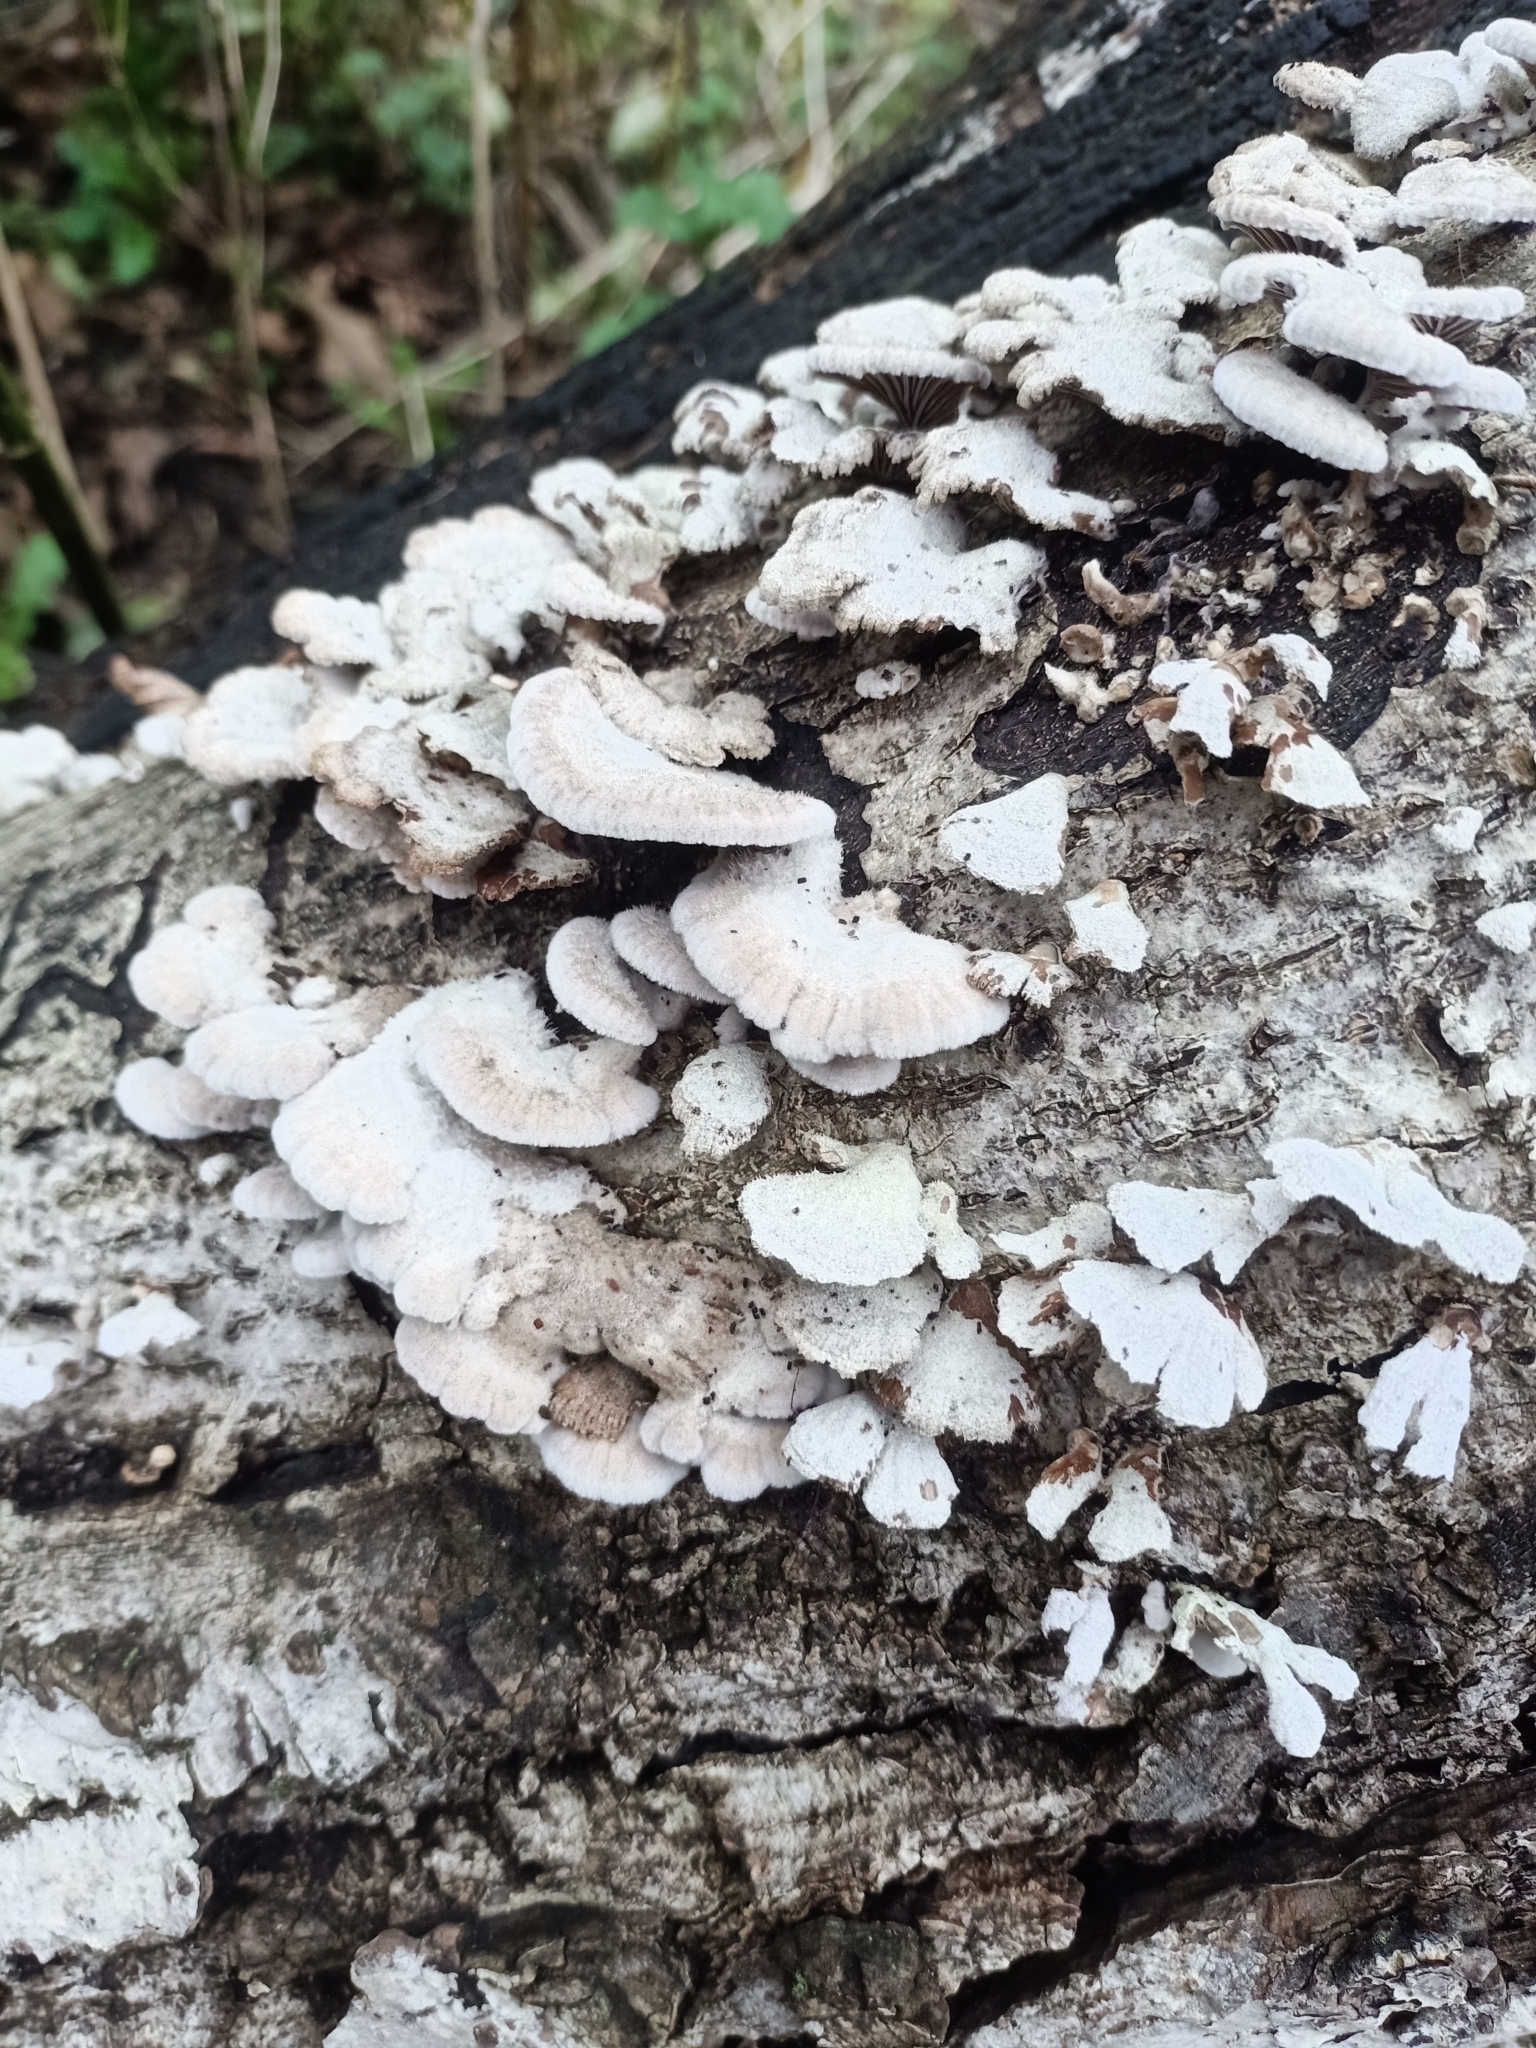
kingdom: Fungi
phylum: Basidiomycota
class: Agaricomycetes
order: Agaricales
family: Schizophyllaceae
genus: Schizophyllum
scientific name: Schizophyllum commune
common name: Common porecrust
